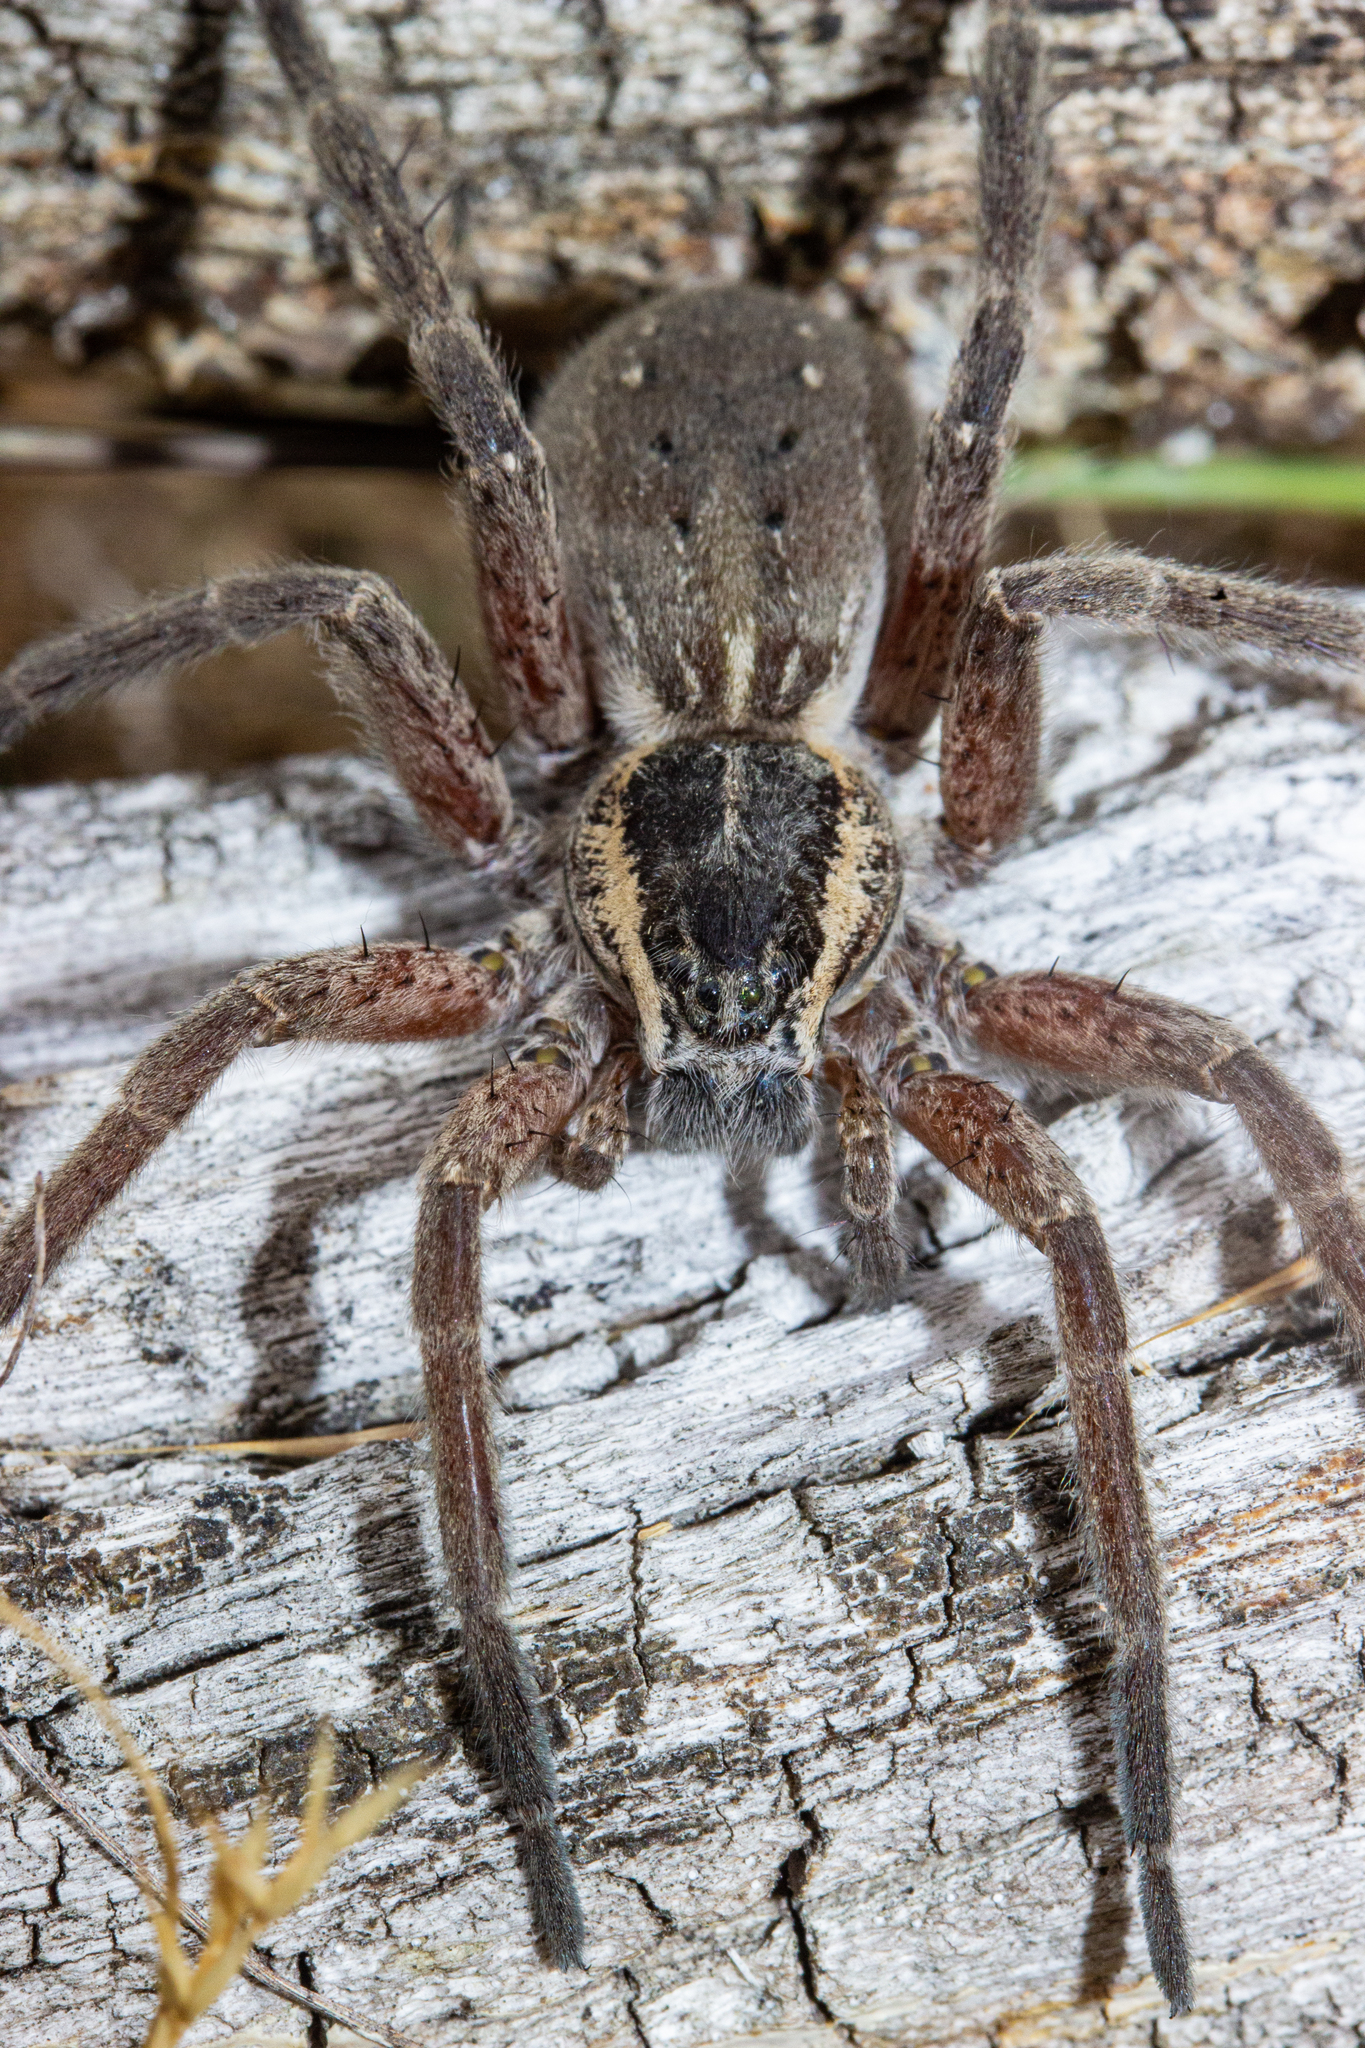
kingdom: Animalia
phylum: Arthropoda
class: Arachnida
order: Araneae
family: Pisauridae
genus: Dolomedes
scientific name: Dolomedes aquaticus
